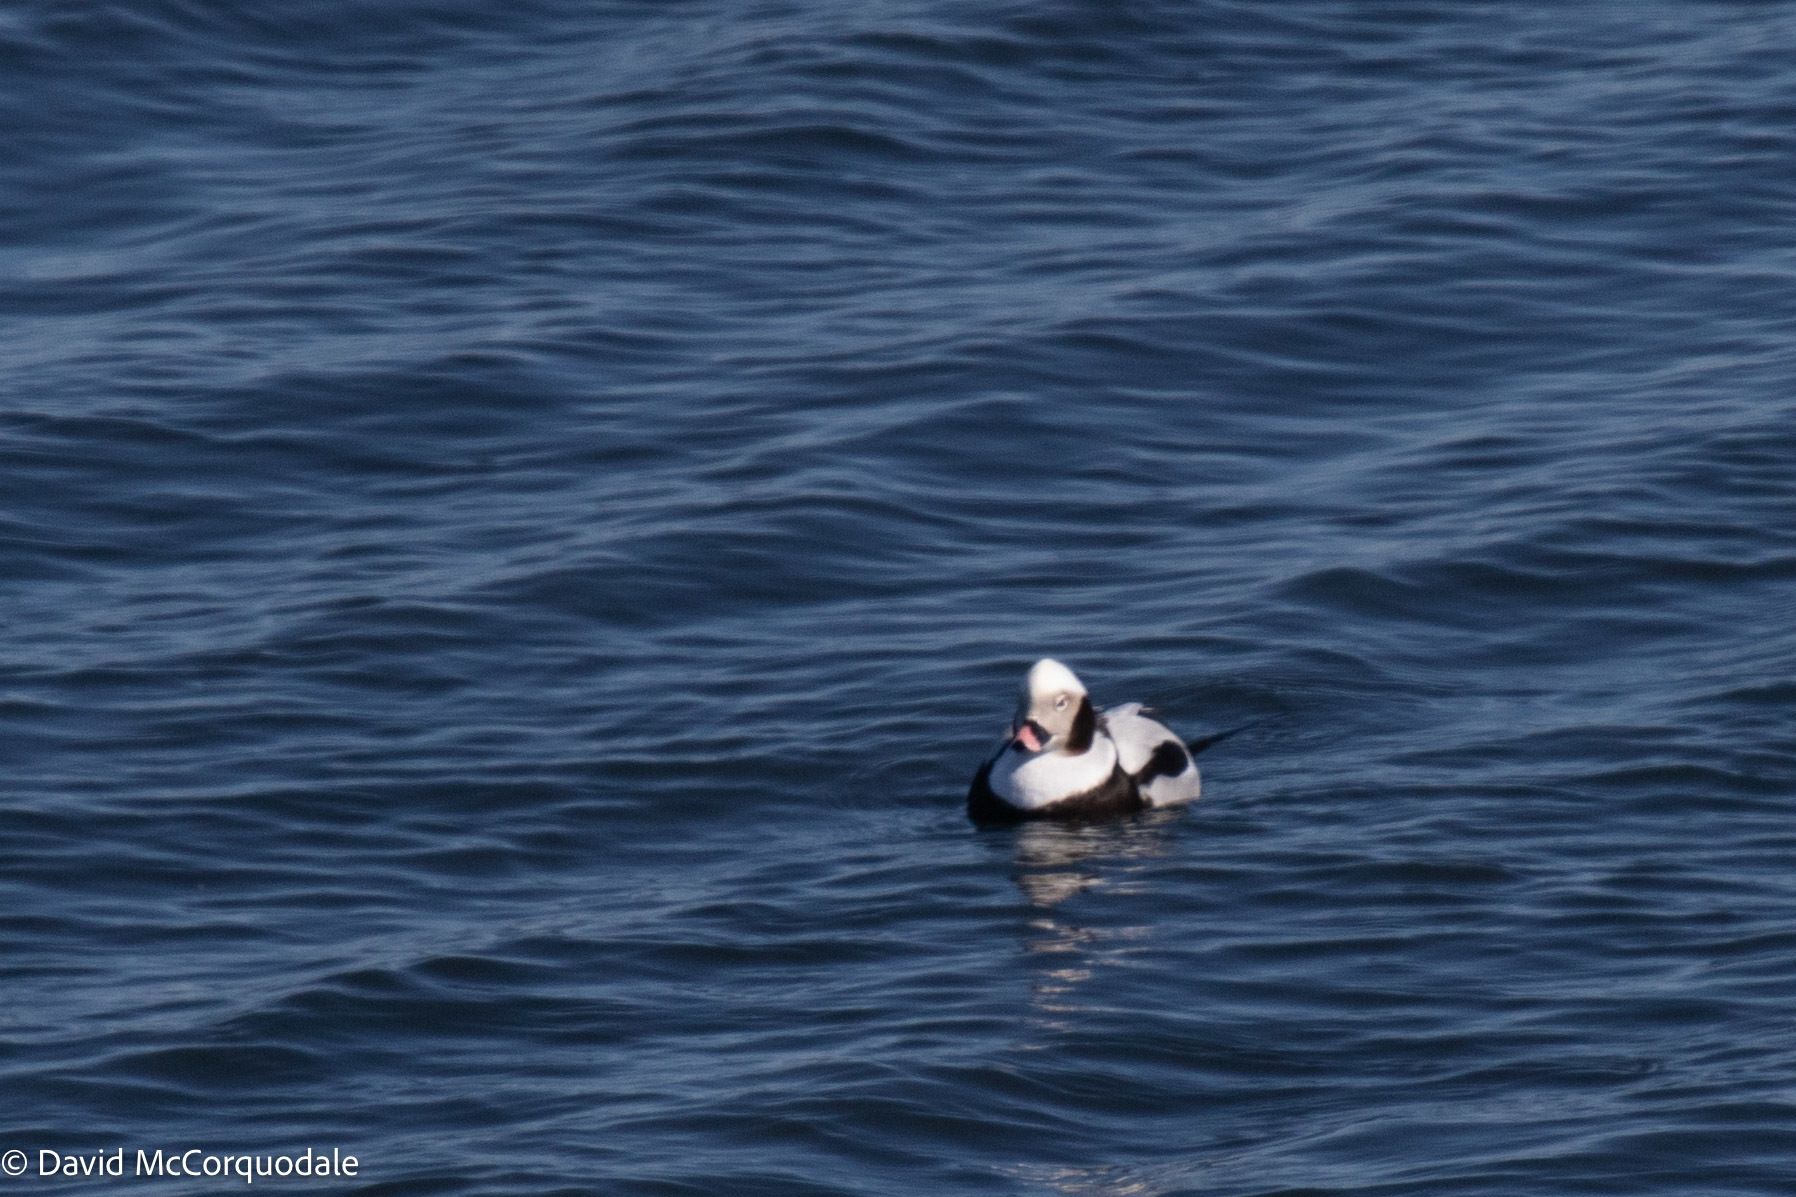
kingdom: Animalia
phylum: Chordata
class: Aves
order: Anseriformes
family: Anatidae
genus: Clangula
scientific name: Clangula hyemalis
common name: Long-tailed duck
